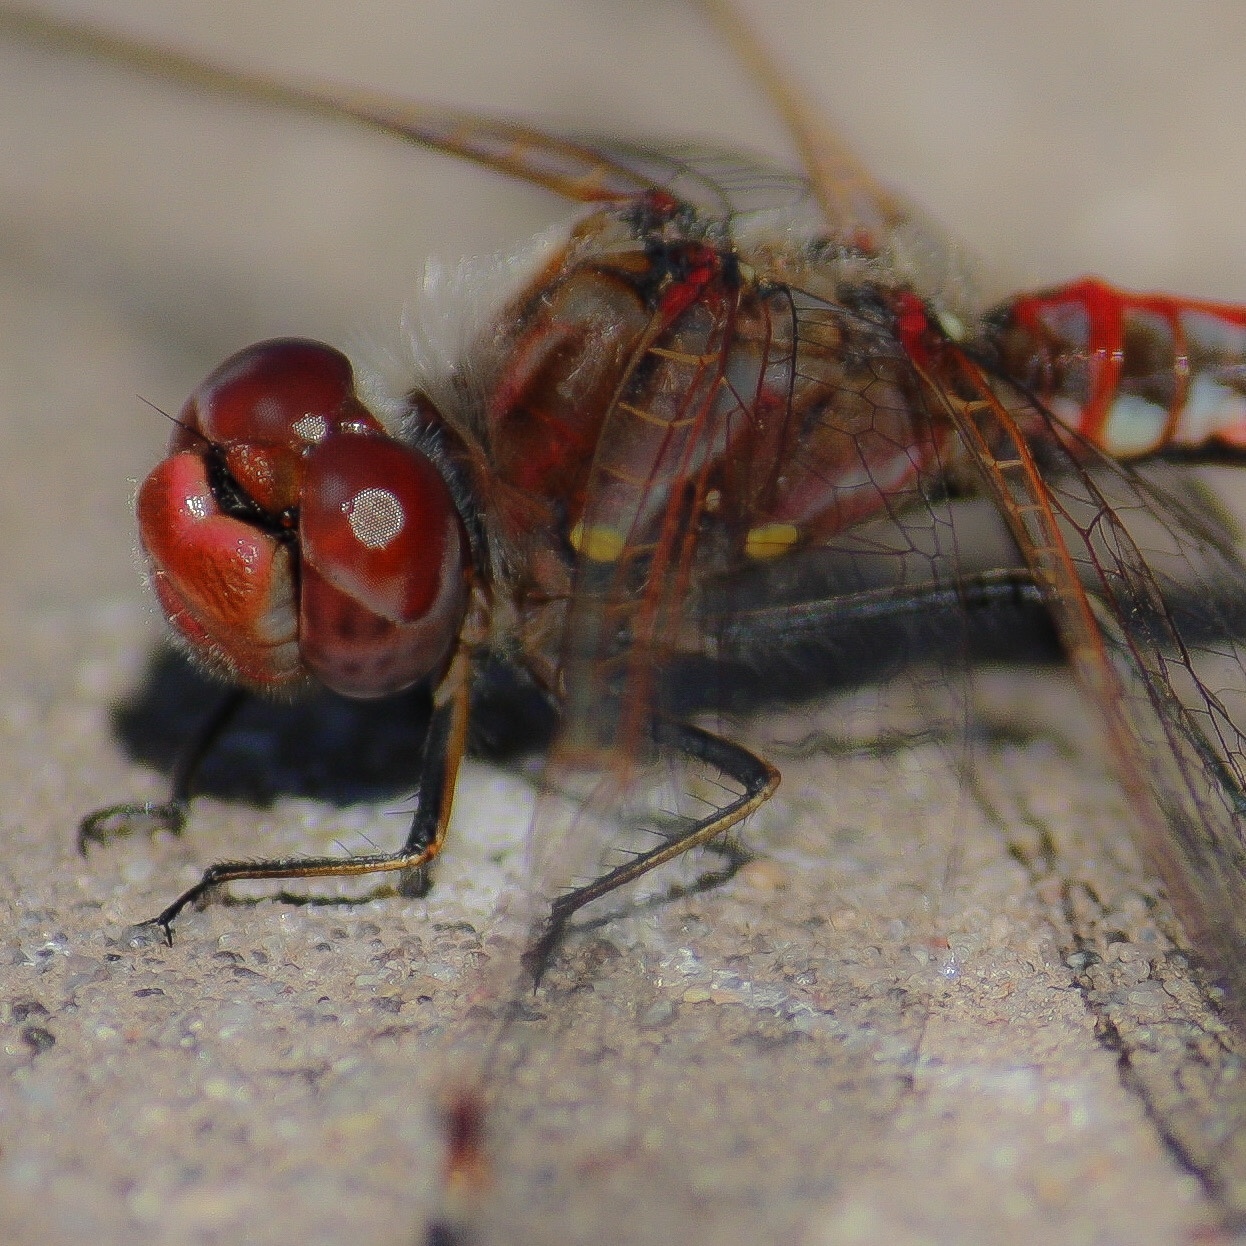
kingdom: Animalia
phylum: Arthropoda
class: Insecta
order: Odonata
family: Libellulidae
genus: Sympetrum
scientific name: Sympetrum corruptum
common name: Variegated meadowhawk
